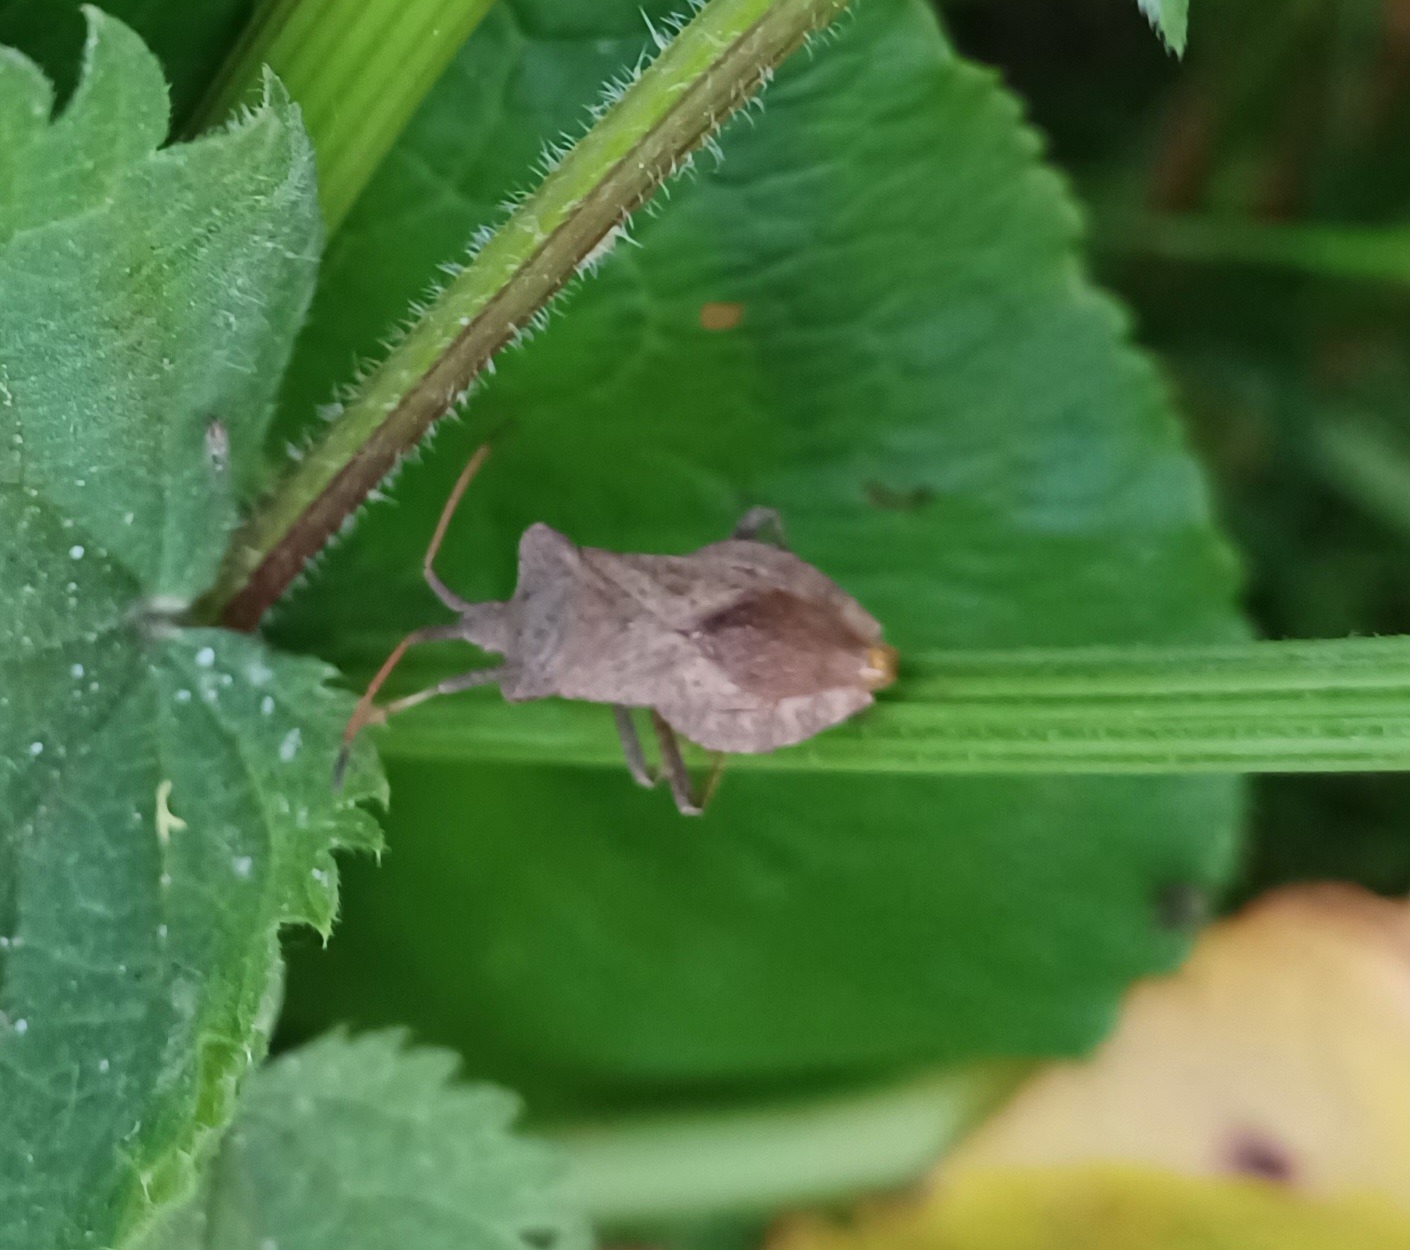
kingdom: Animalia
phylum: Arthropoda
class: Insecta
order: Hemiptera
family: Coreidae
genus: Coreus
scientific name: Coreus marginatus
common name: Dock bug
